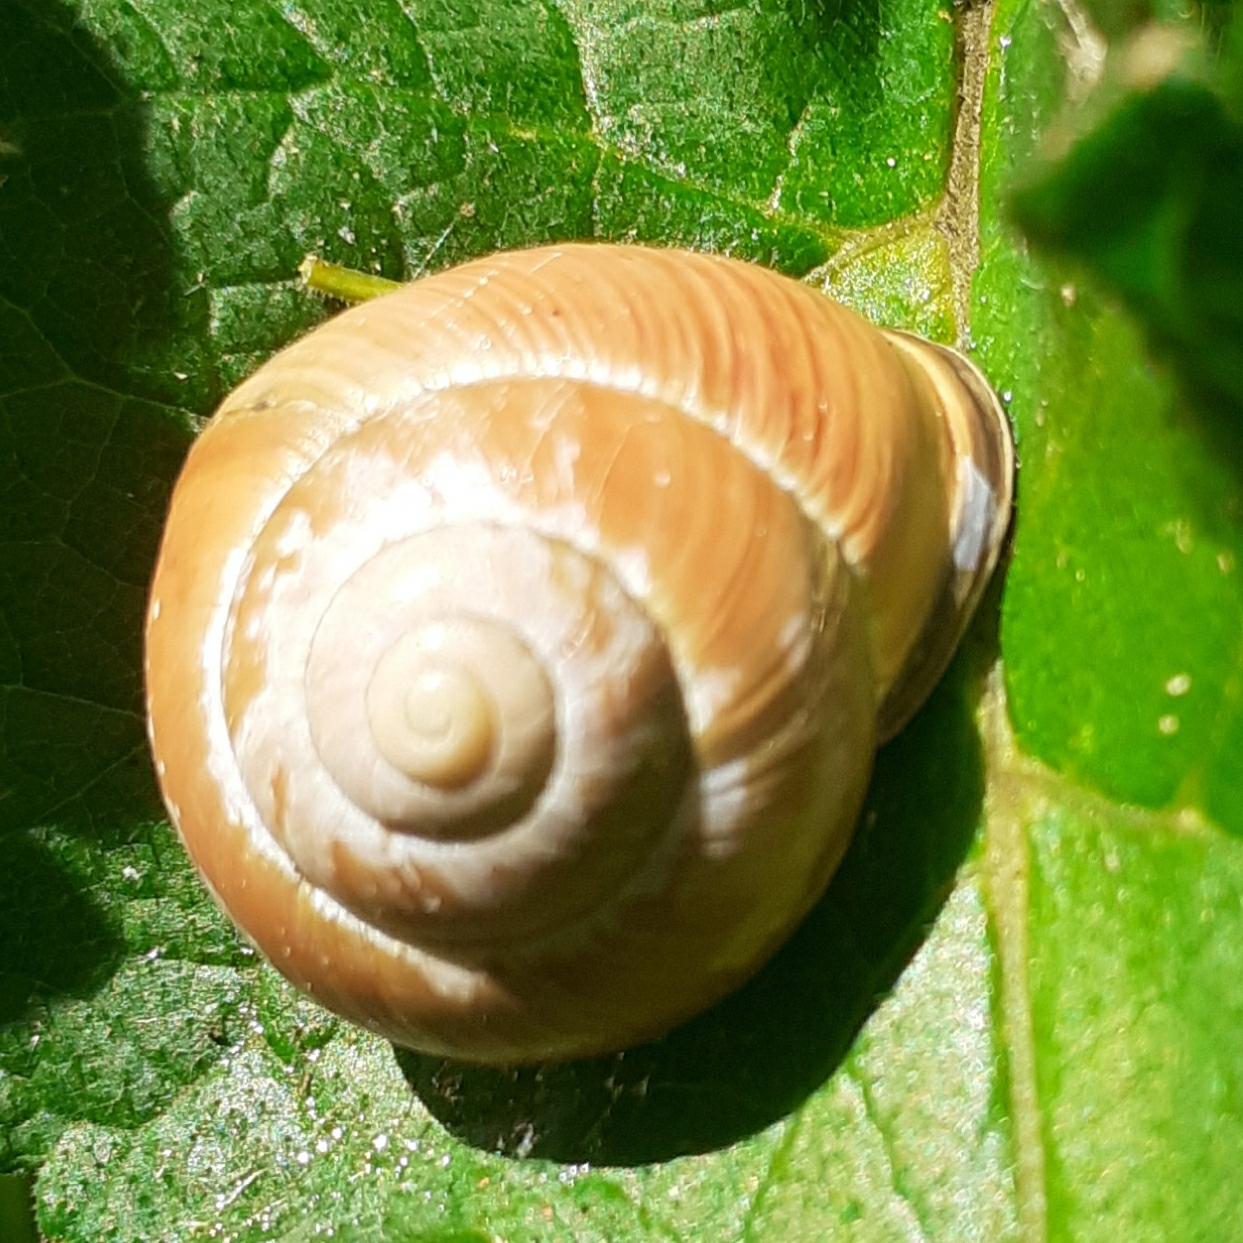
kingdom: Animalia
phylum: Mollusca
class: Gastropoda
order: Stylommatophora
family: Helicidae
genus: Cepaea
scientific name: Cepaea nemoralis
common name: Grovesnail
